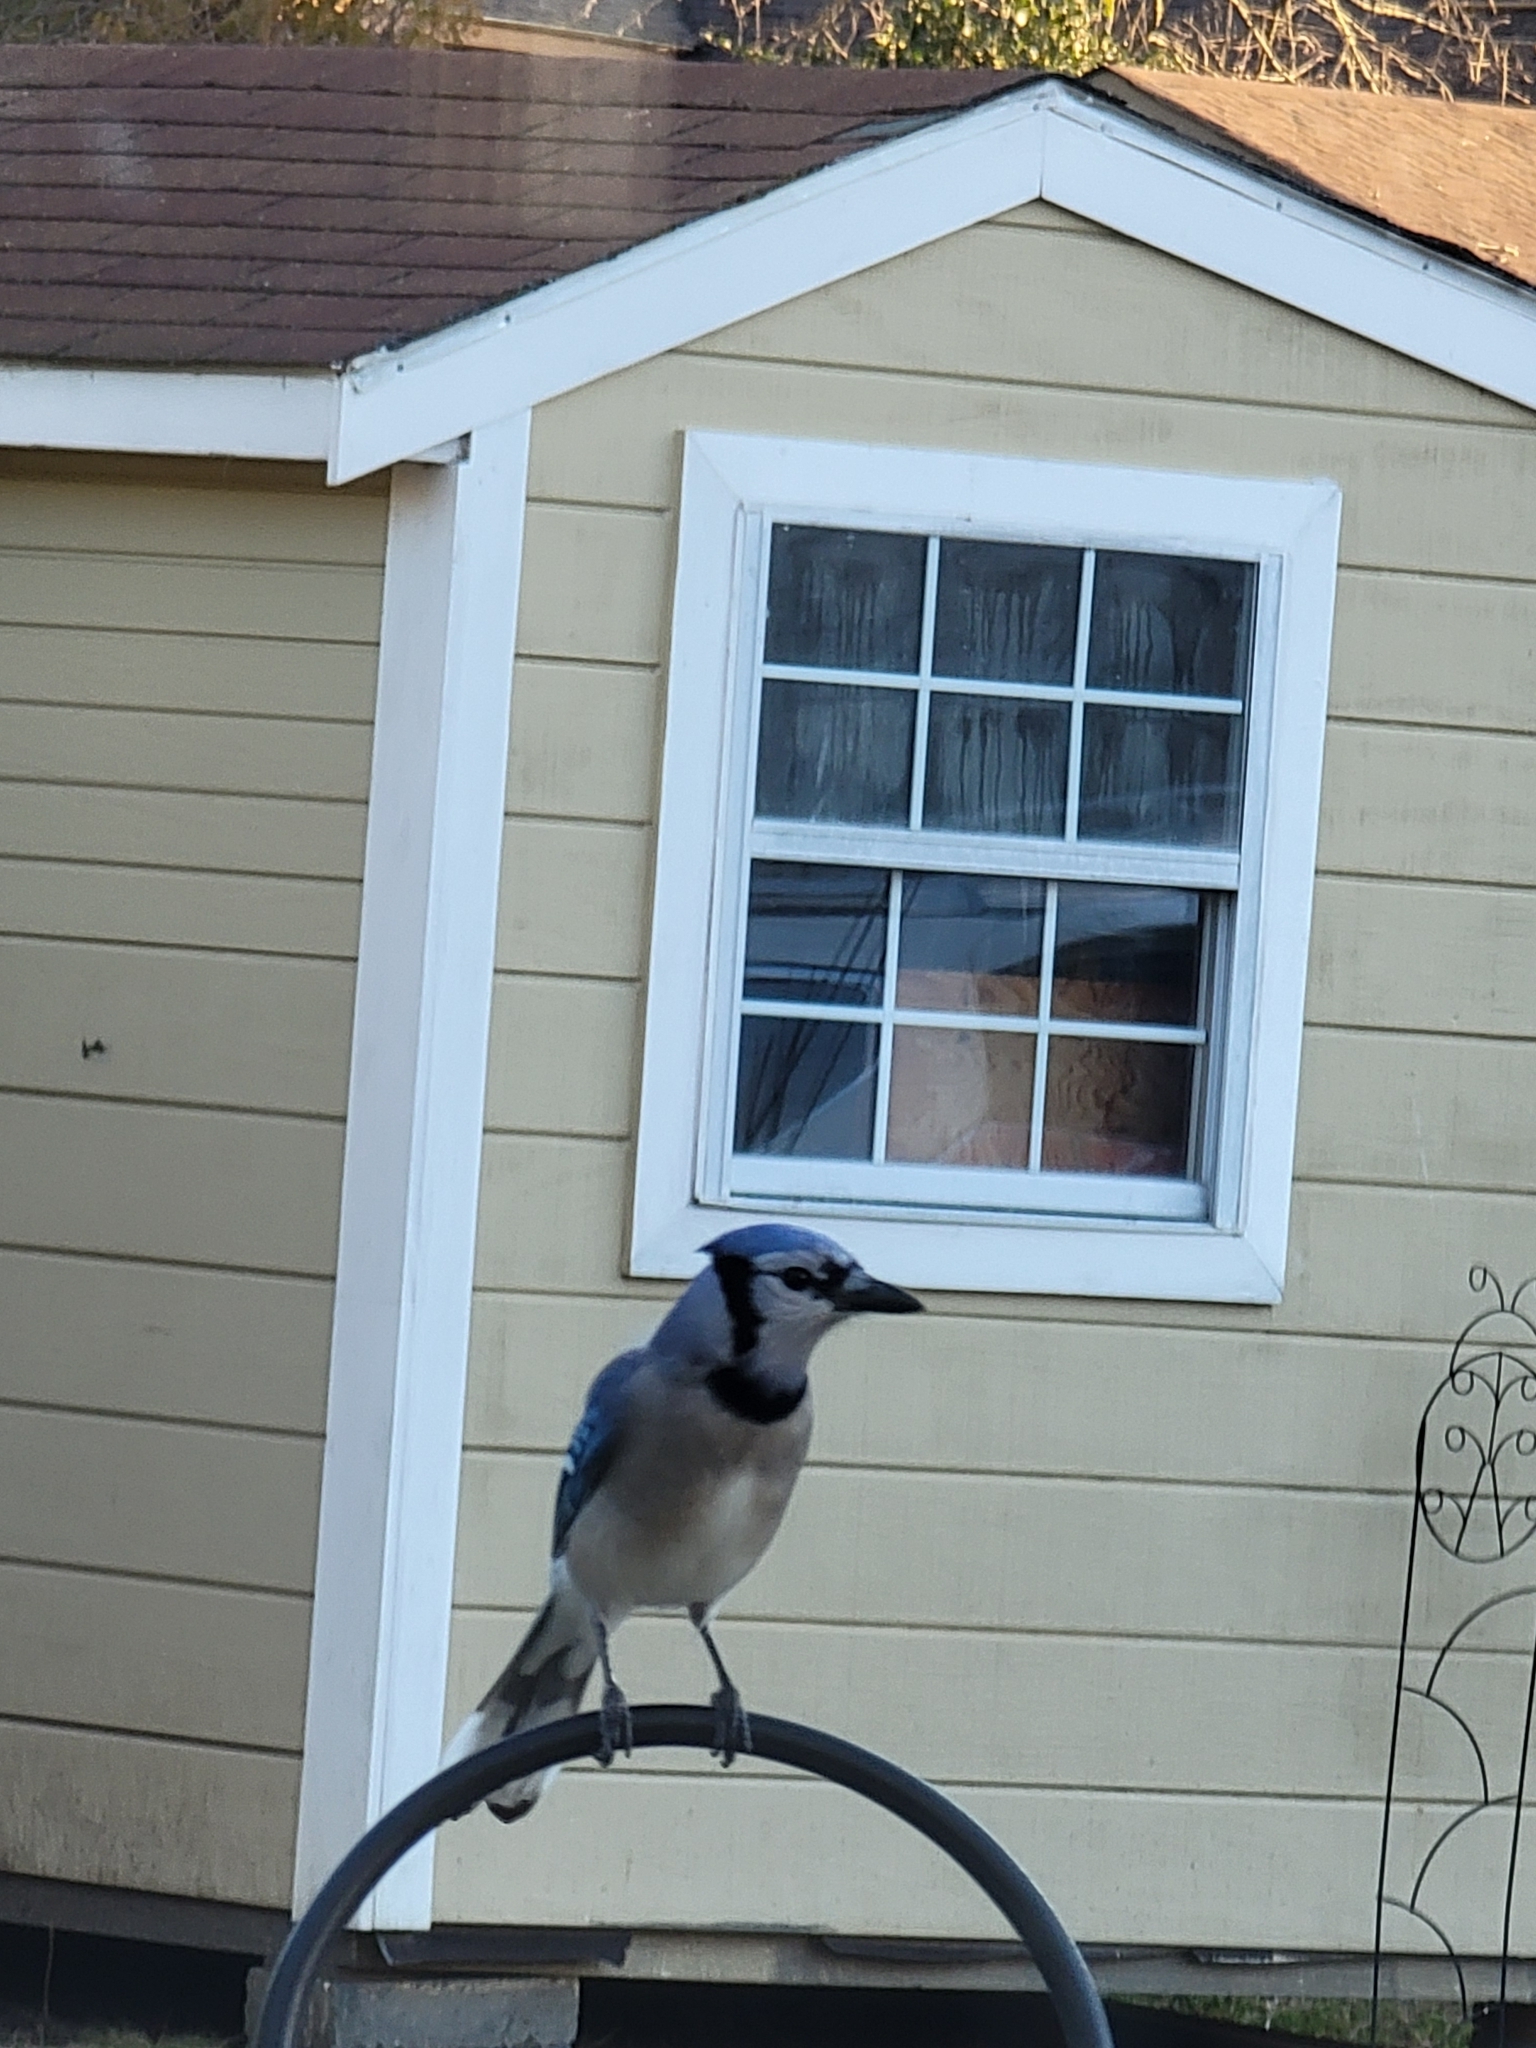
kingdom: Animalia
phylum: Chordata
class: Aves
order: Passeriformes
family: Corvidae
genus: Cyanocitta
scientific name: Cyanocitta cristata
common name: Blue jay
